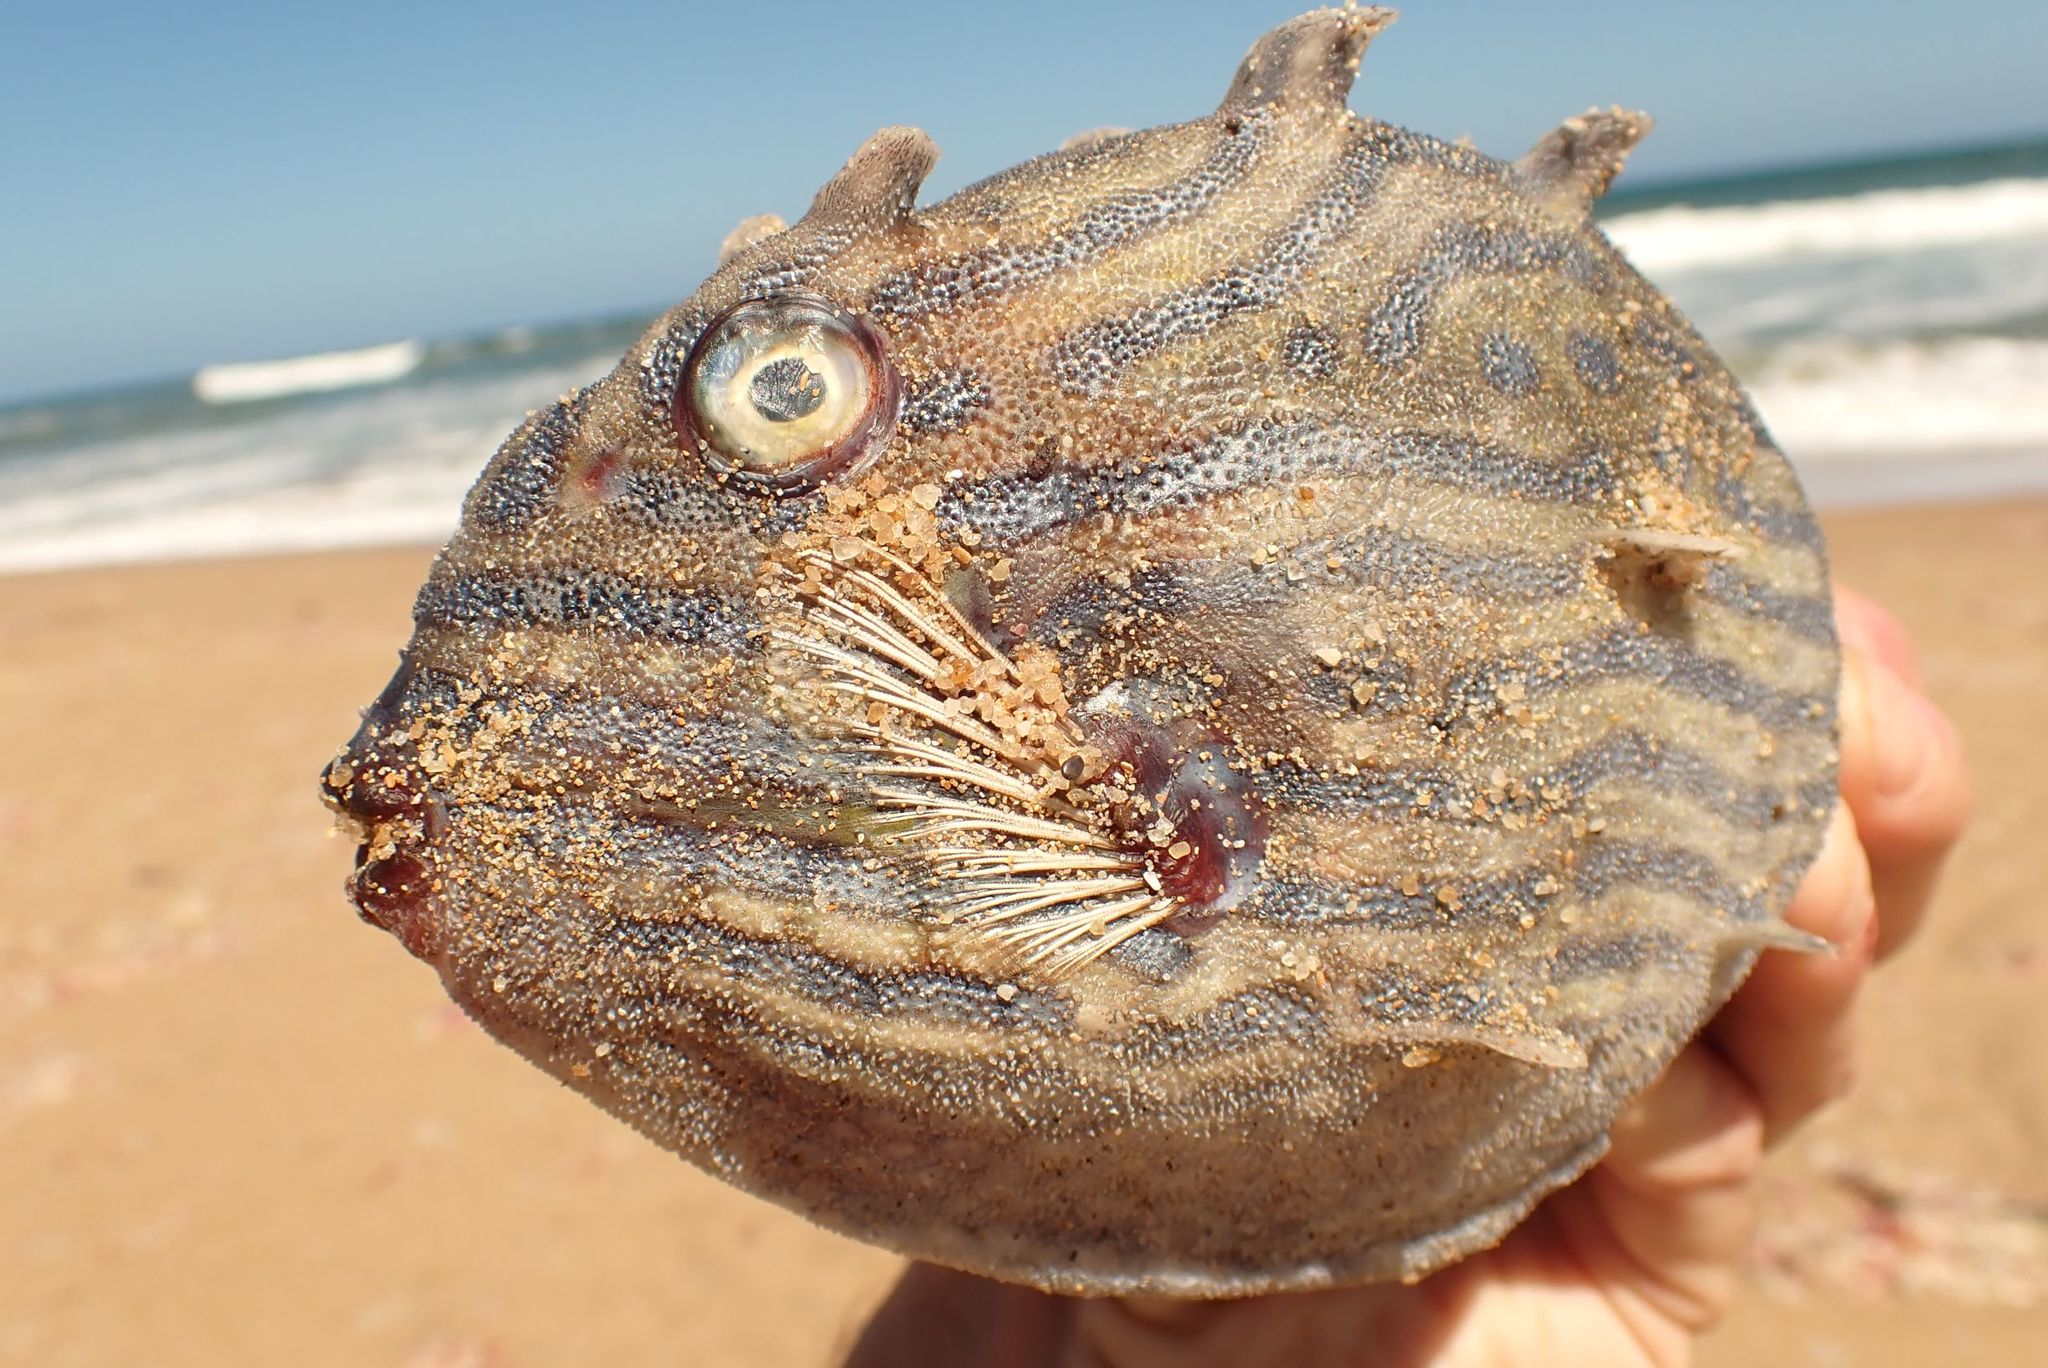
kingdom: Animalia
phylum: Chordata
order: Tetraodontiformes
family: Aracanidae
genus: Aracana
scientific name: Aracana aurita
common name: Shaw’s cowfish
